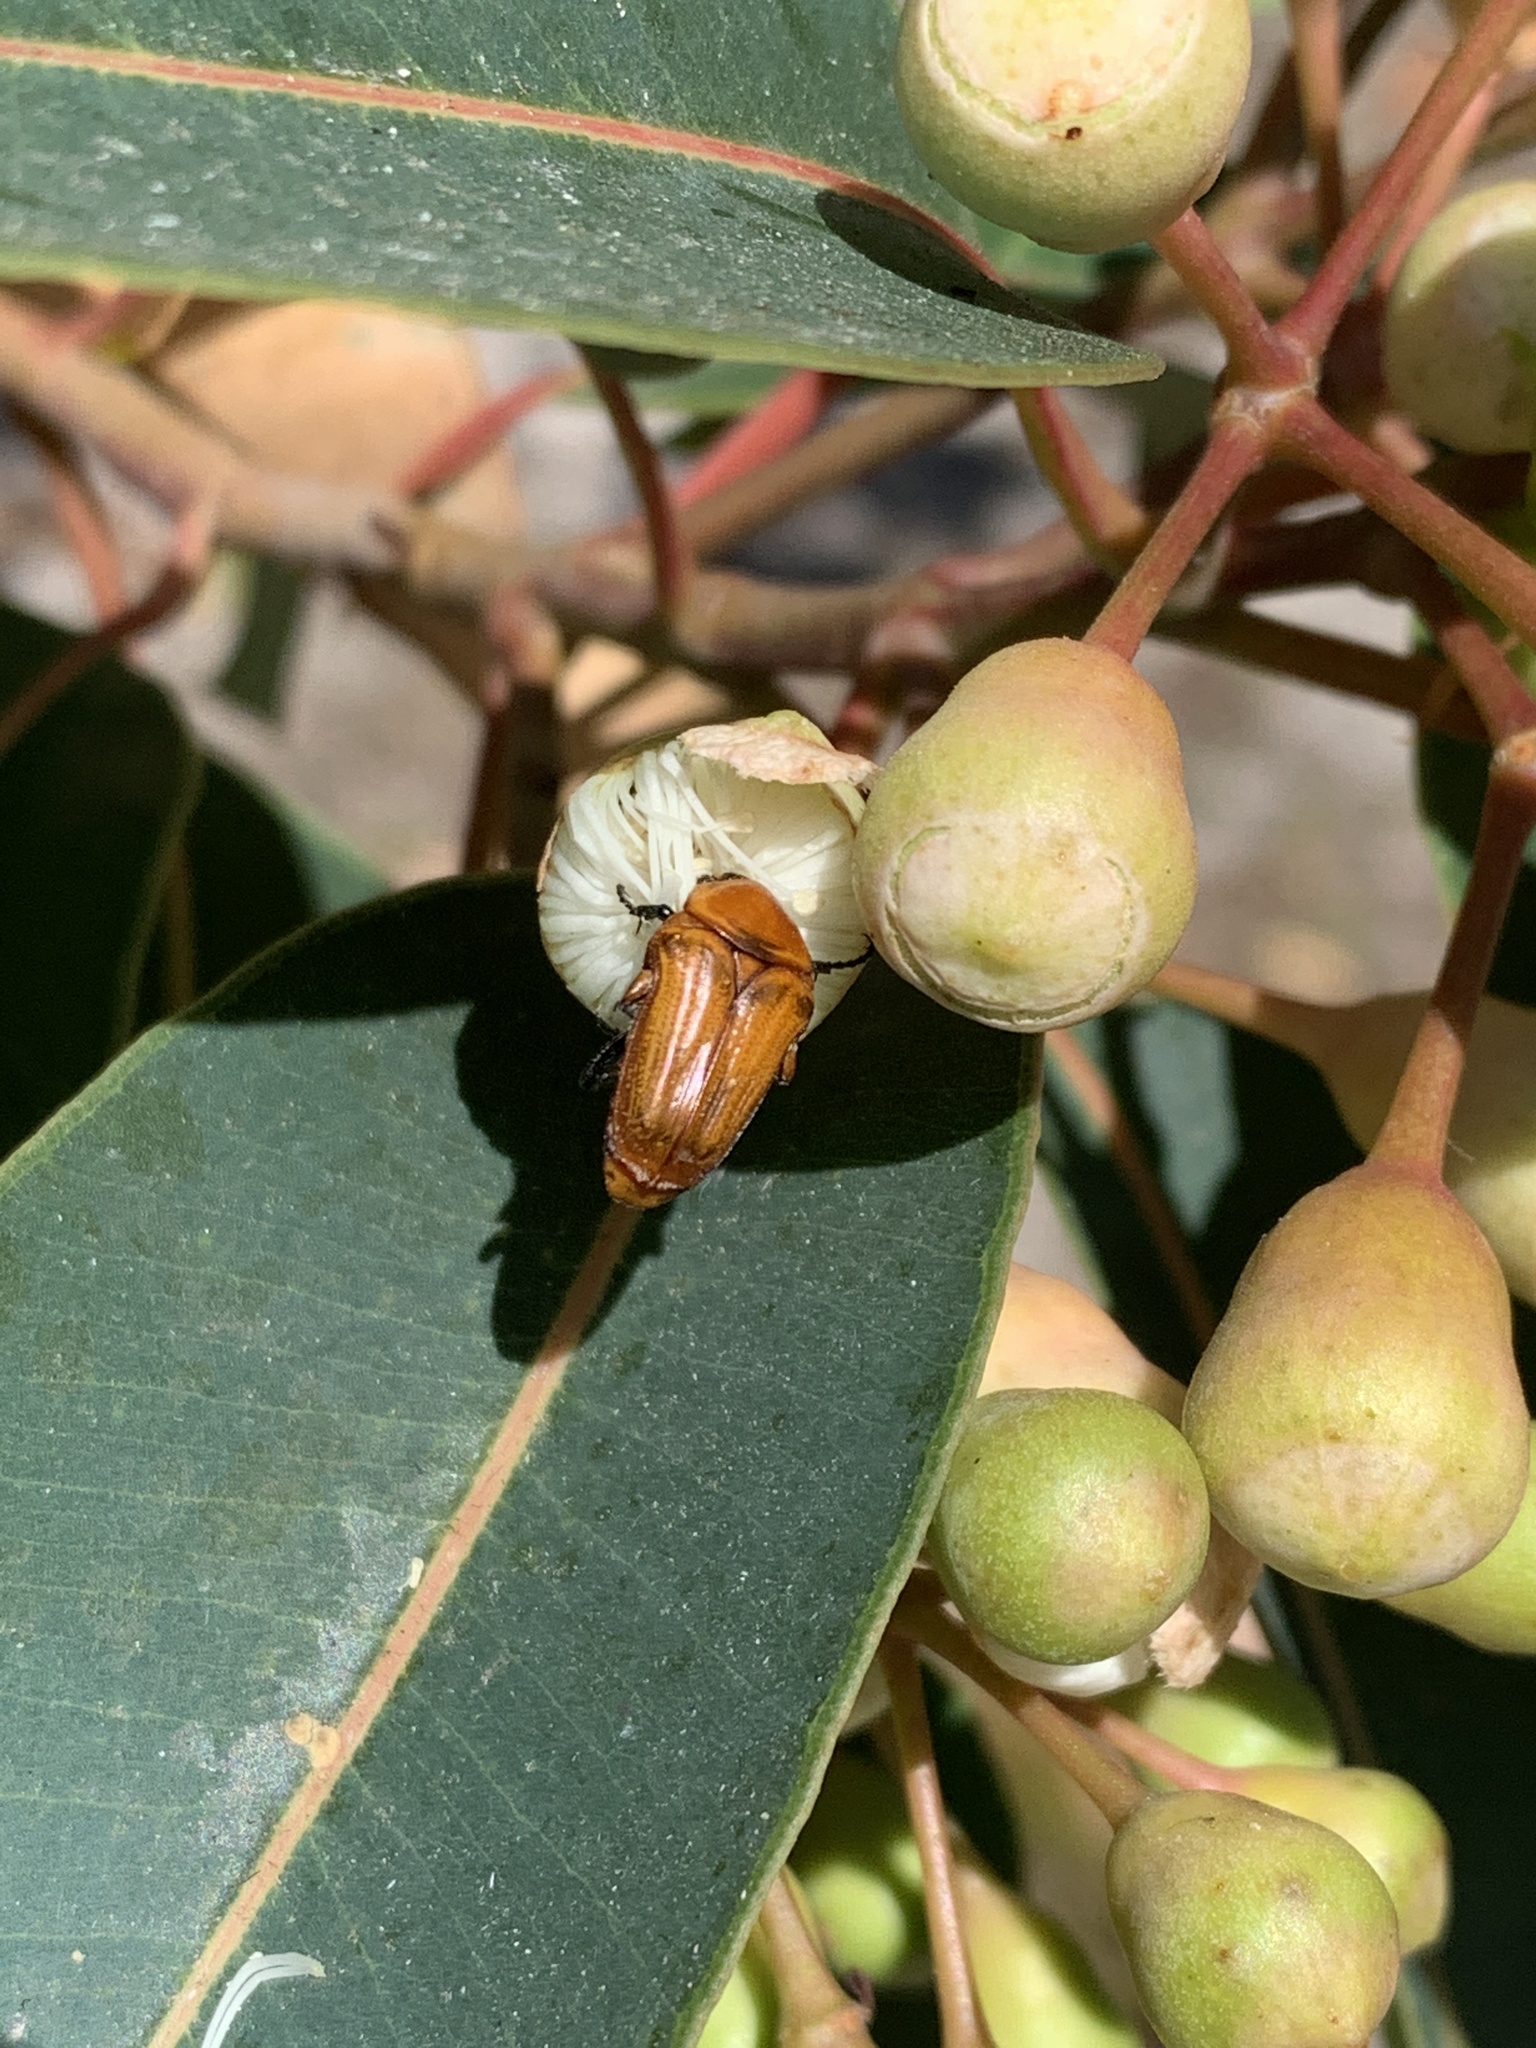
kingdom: Animalia
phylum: Arthropoda
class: Insecta
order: Coleoptera
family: Scarabaeidae
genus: Leucocelis
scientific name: Leucocelis rubra
